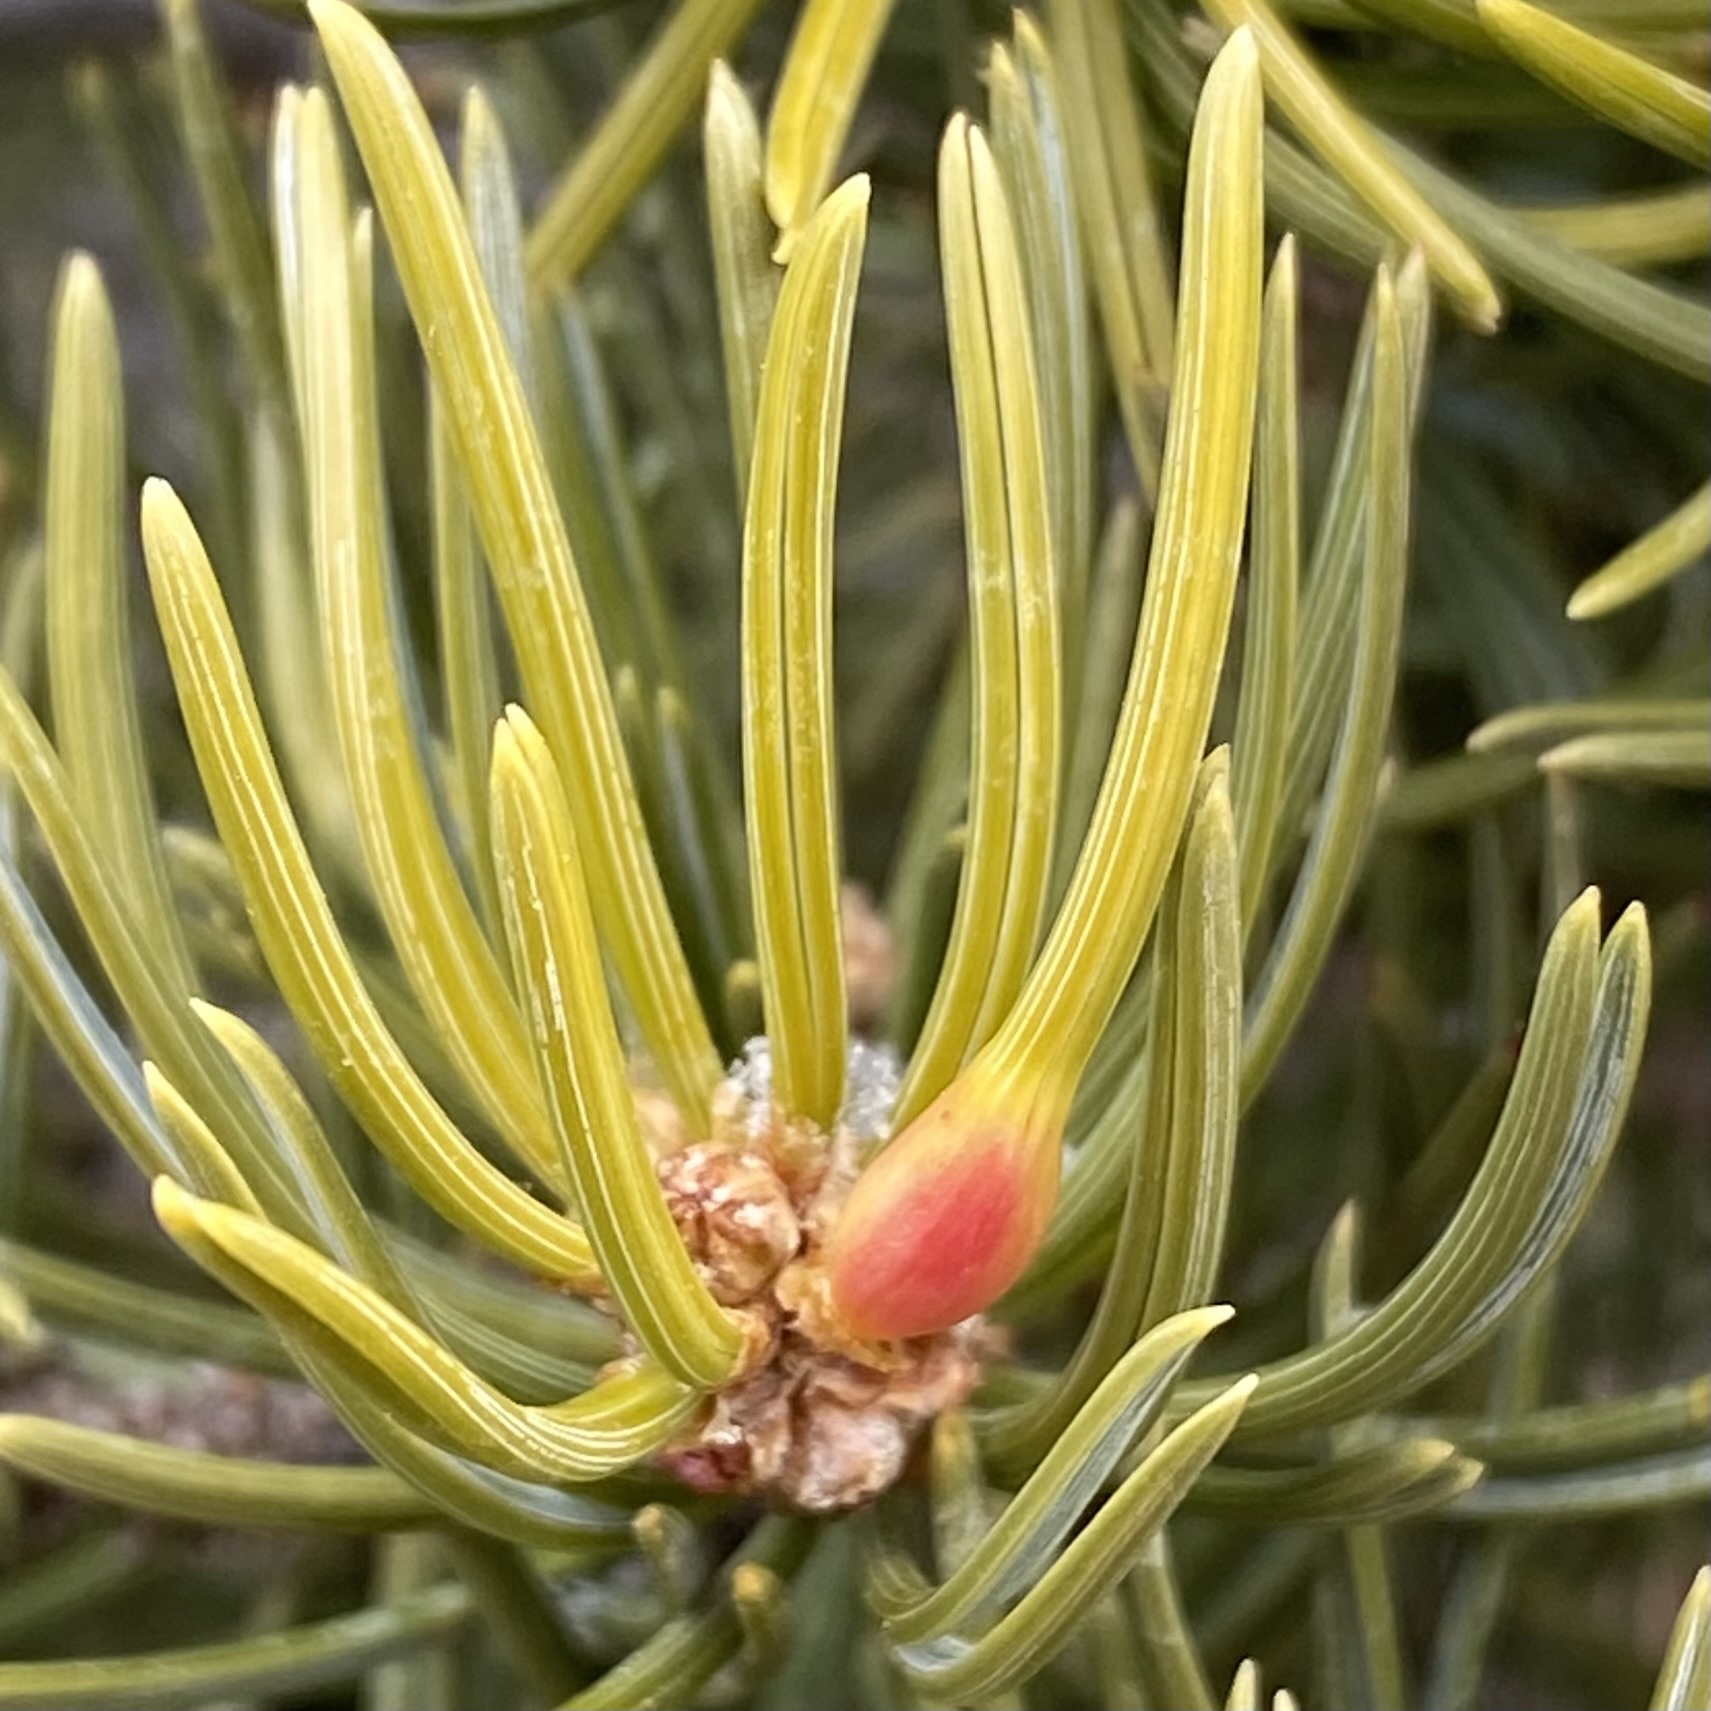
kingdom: Animalia
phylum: Arthropoda
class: Insecta
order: Diptera
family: Cecidomyiidae
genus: Pinyonia
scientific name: Pinyonia edulicola
